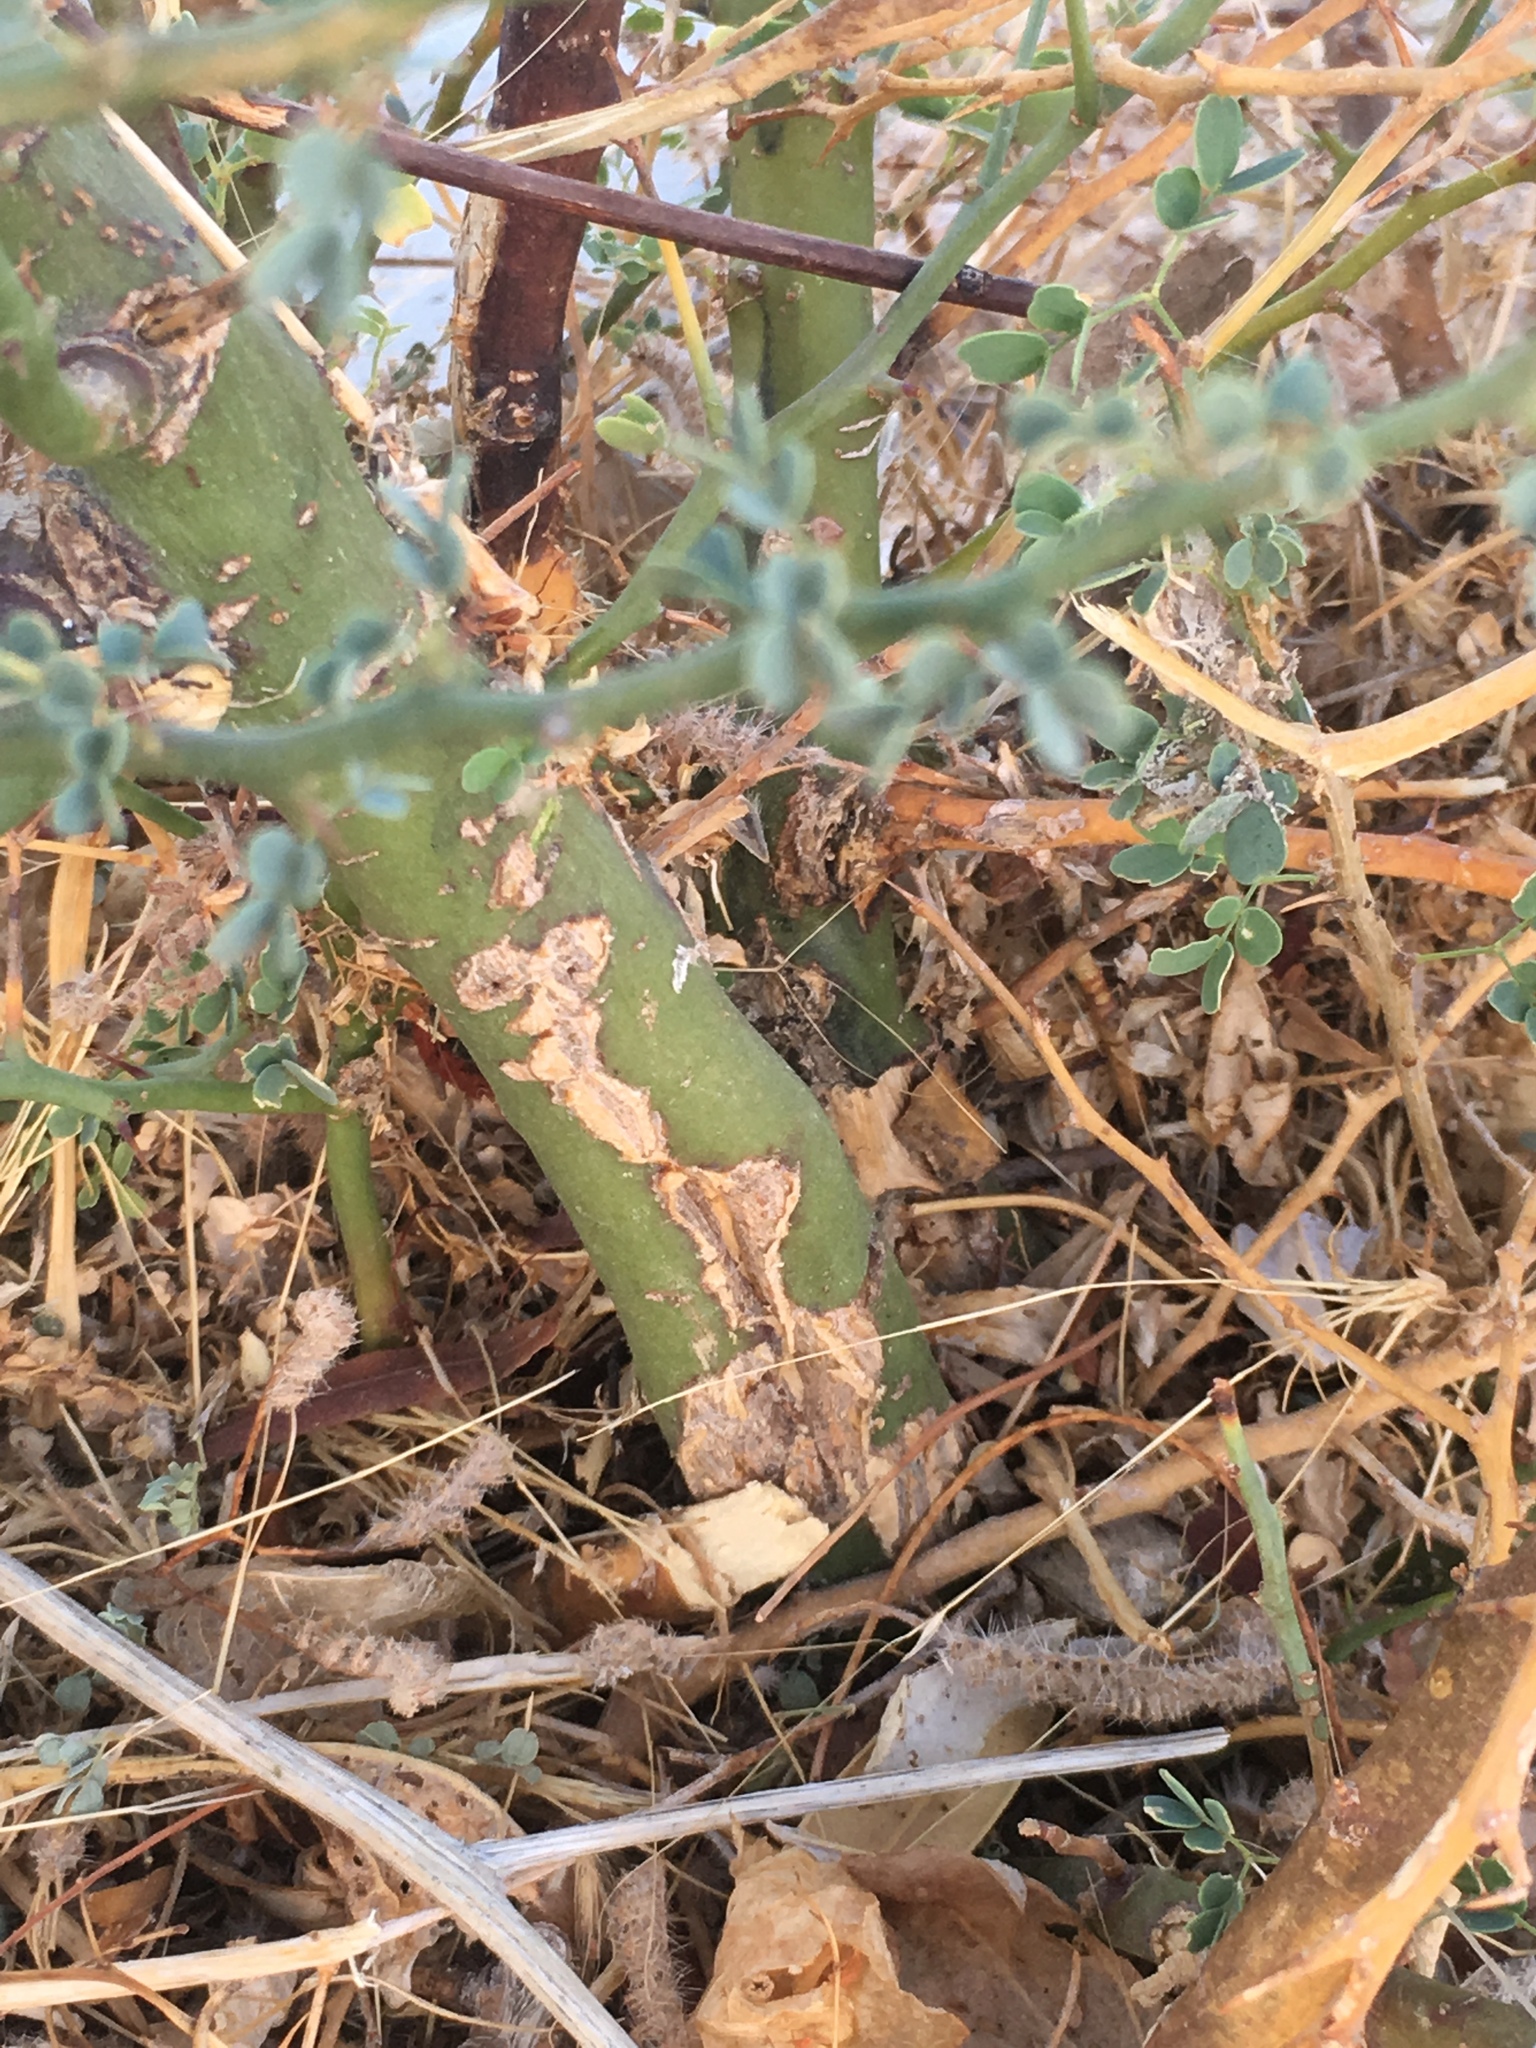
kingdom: Plantae
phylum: Tracheophyta
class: Magnoliopsida
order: Fabales
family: Fabaceae
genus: Parkinsonia
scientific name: Parkinsonia florida
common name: Blue paloverde
